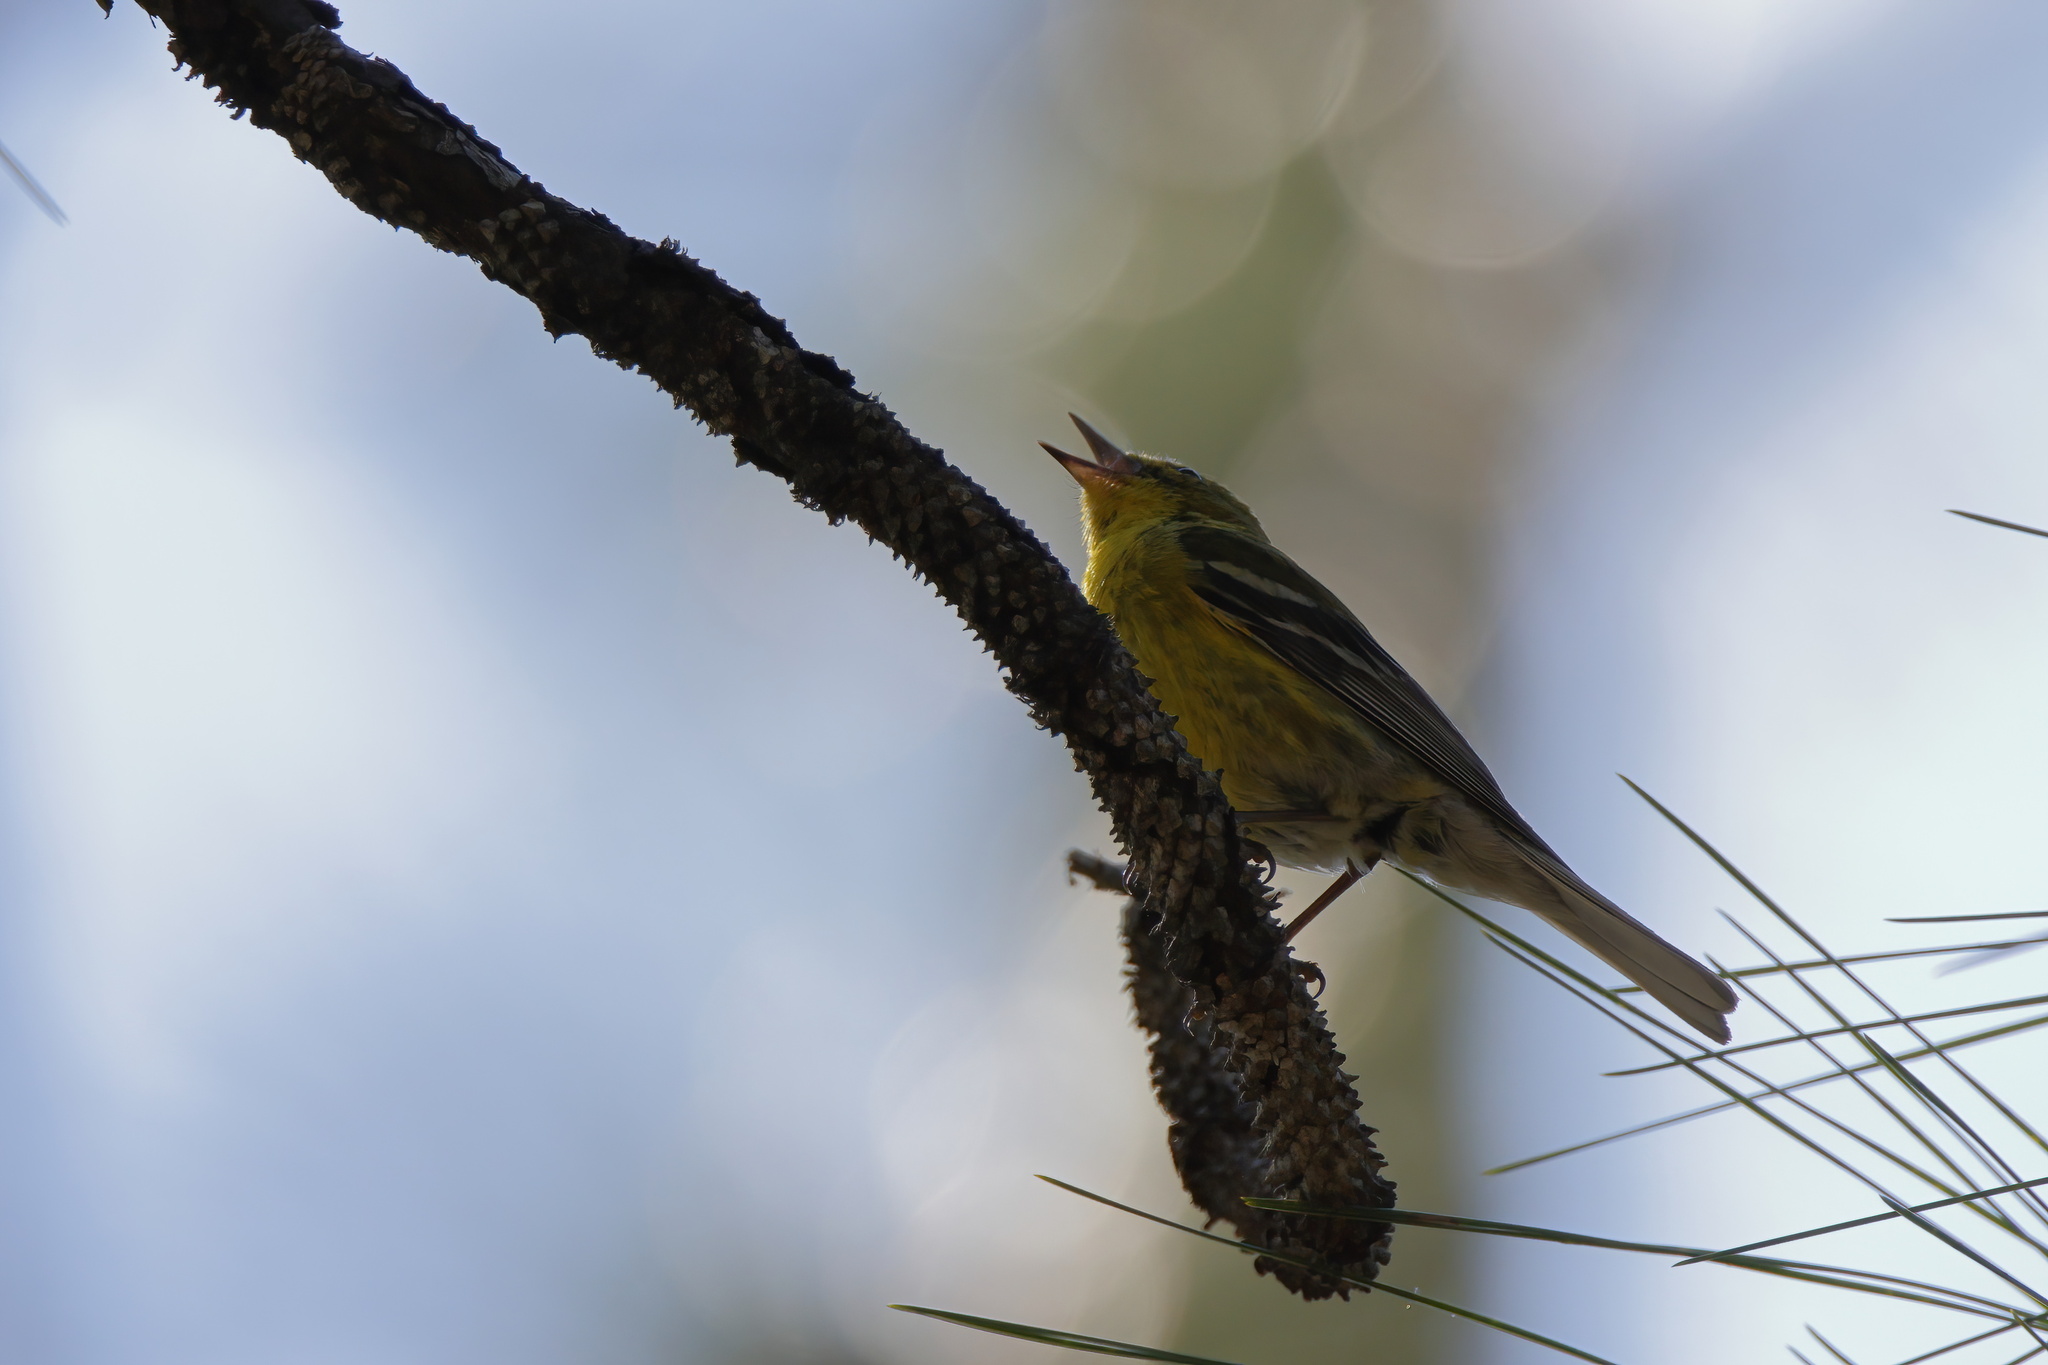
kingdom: Animalia
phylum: Chordata
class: Aves
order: Passeriformes
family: Parulidae
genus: Setophaga
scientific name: Setophaga pinus
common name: Pine warbler
